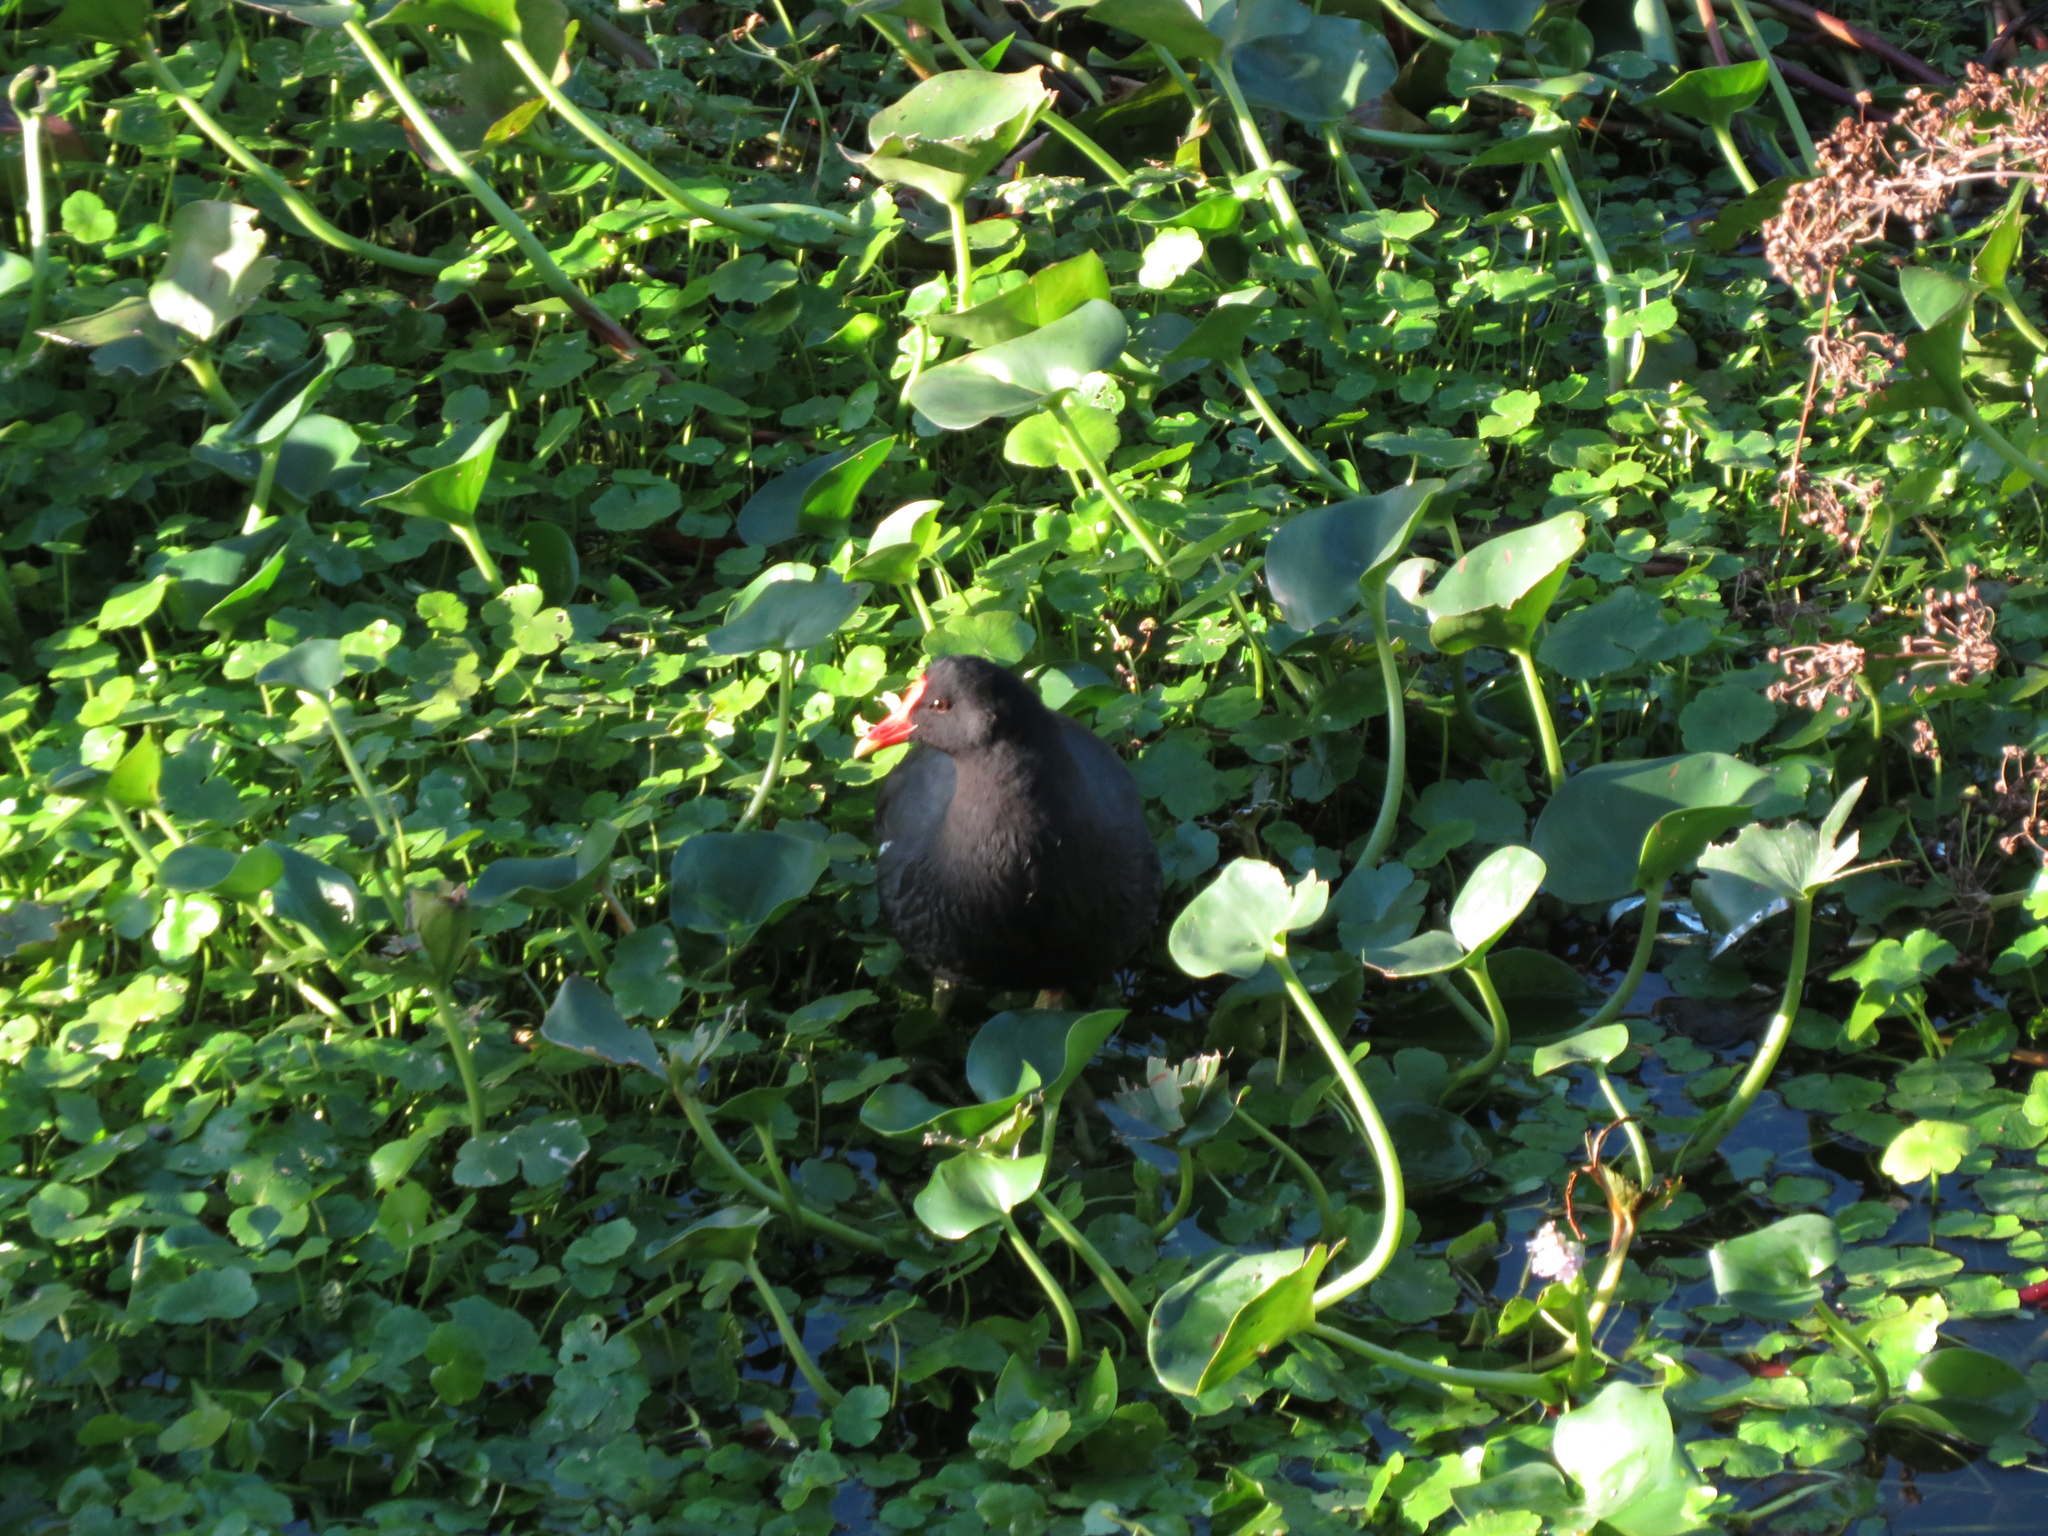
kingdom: Animalia
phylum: Chordata
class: Aves
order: Gruiformes
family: Rallidae
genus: Gallinula
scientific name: Gallinula chloropus
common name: Common moorhen
